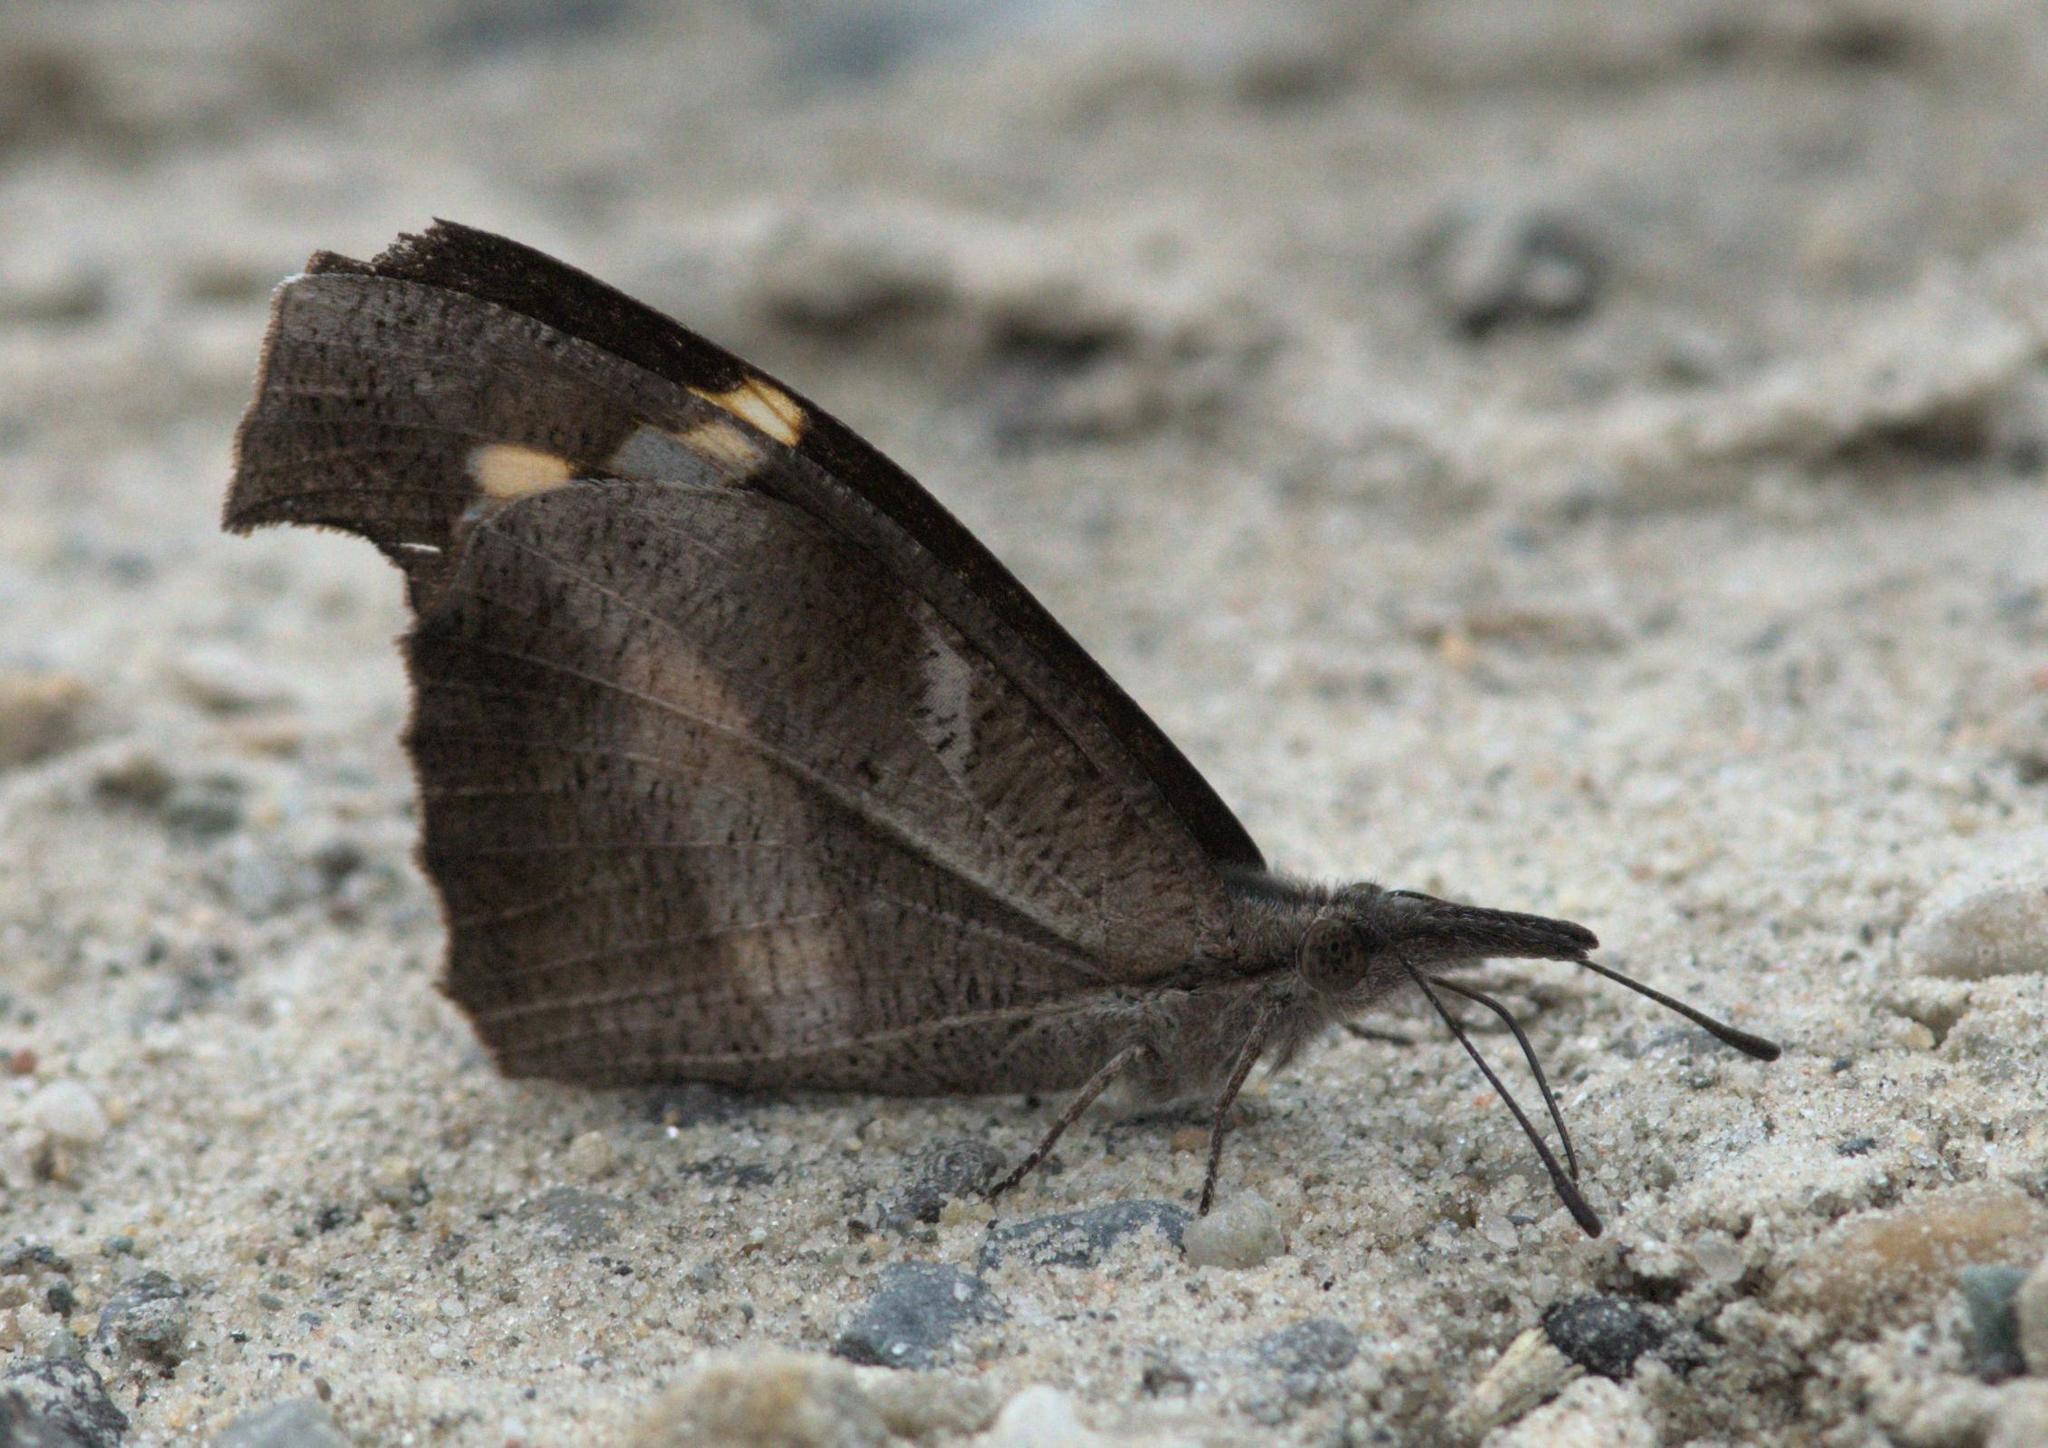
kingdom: Animalia
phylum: Arthropoda
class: Insecta
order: Lepidoptera
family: Nymphalidae
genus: Libythea
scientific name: Libythea myrrha
